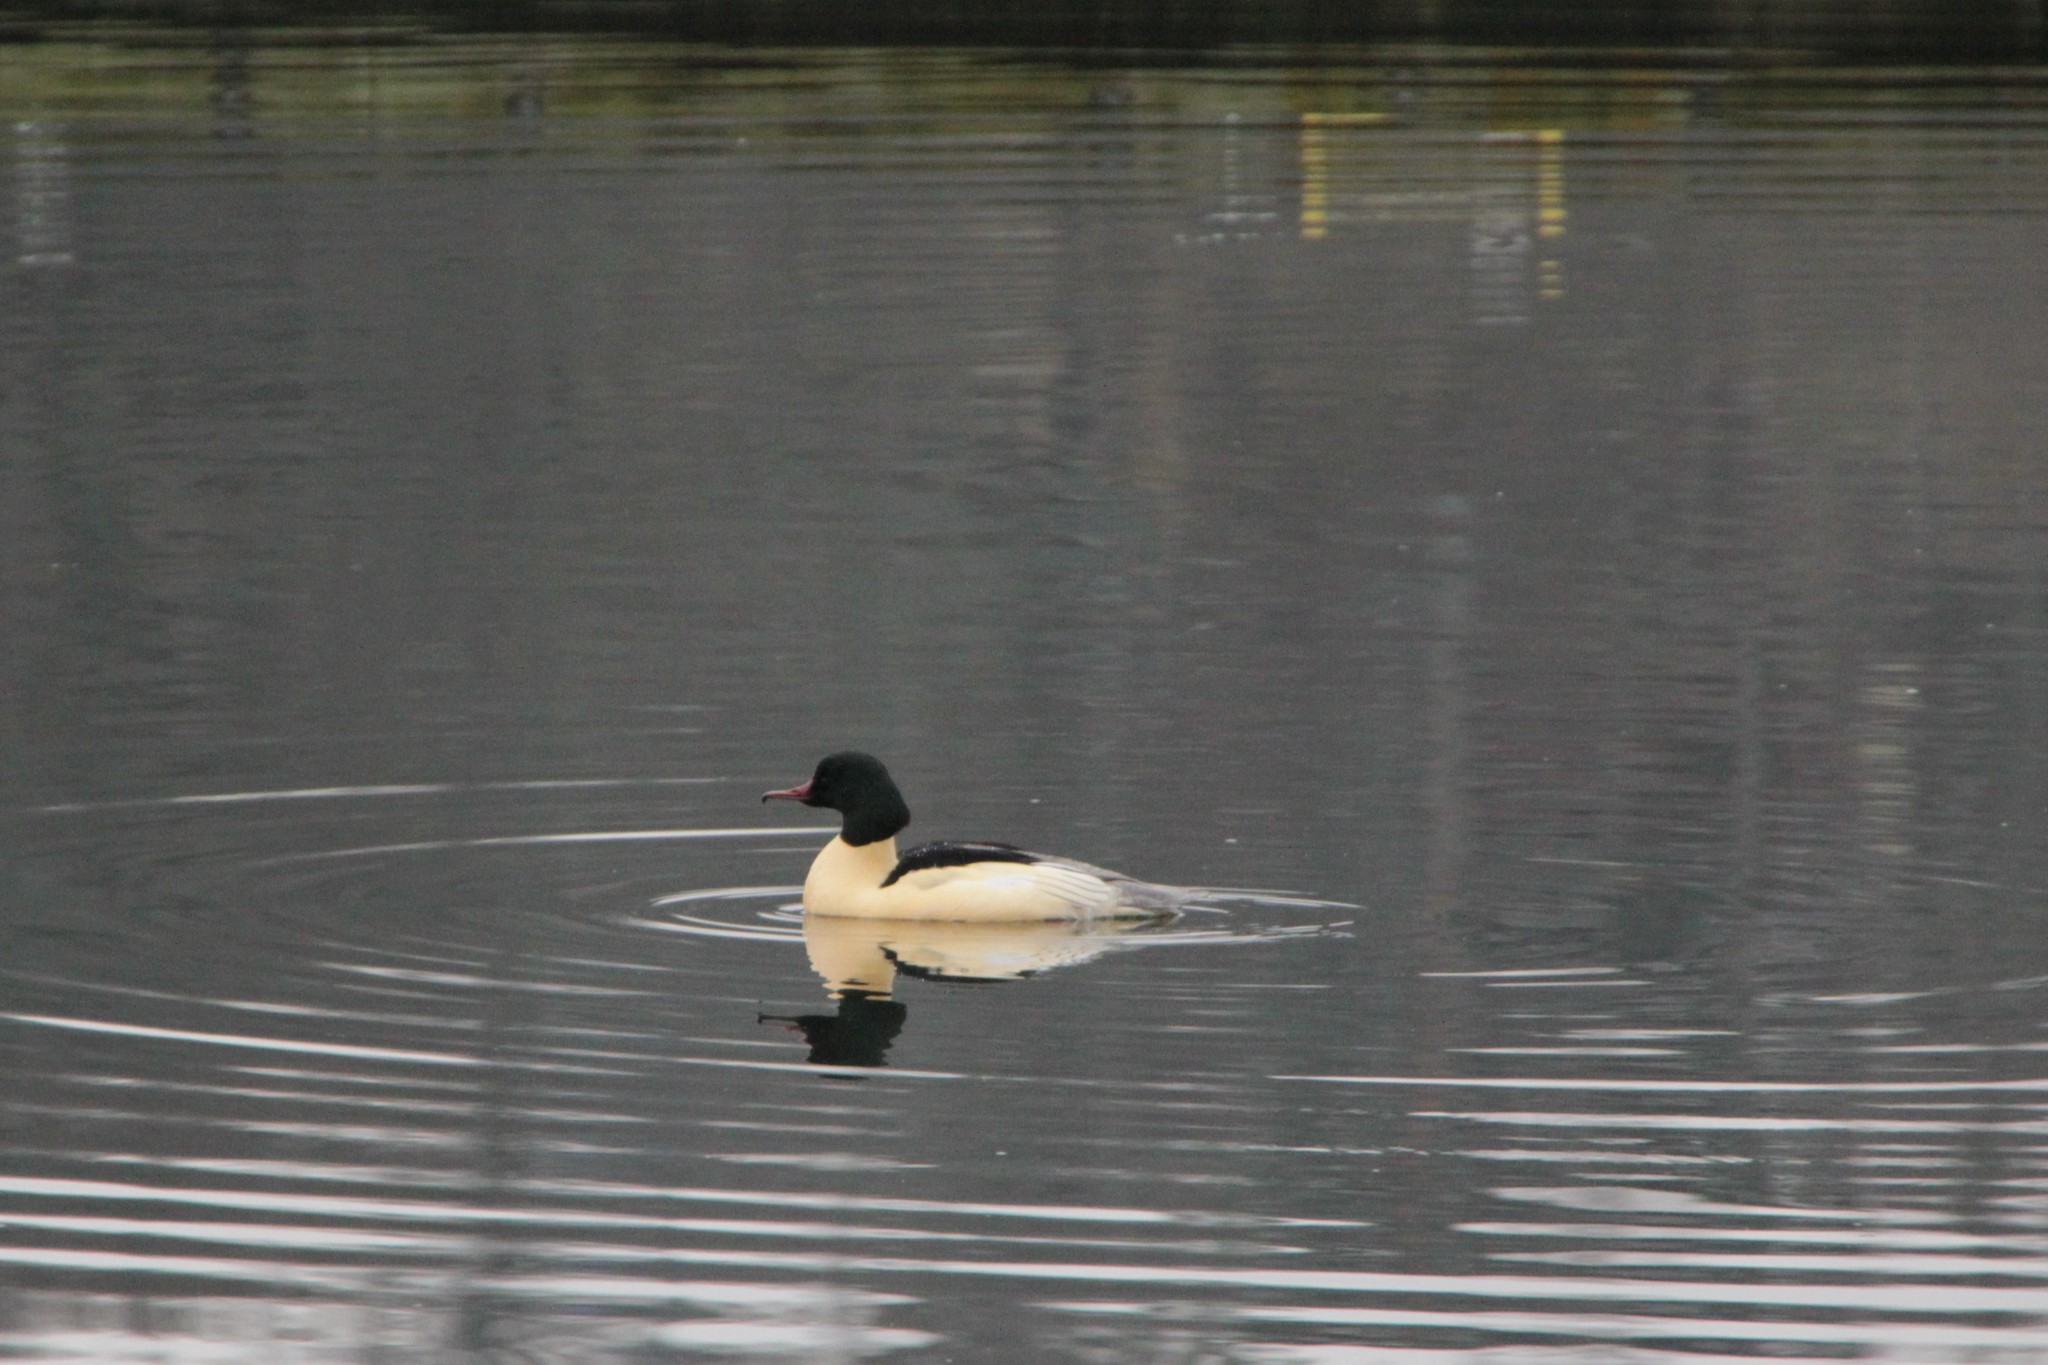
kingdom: Animalia
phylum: Chordata
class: Aves
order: Anseriformes
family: Anatidae
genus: Mergus
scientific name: Mergus merganser
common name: Common merganser
